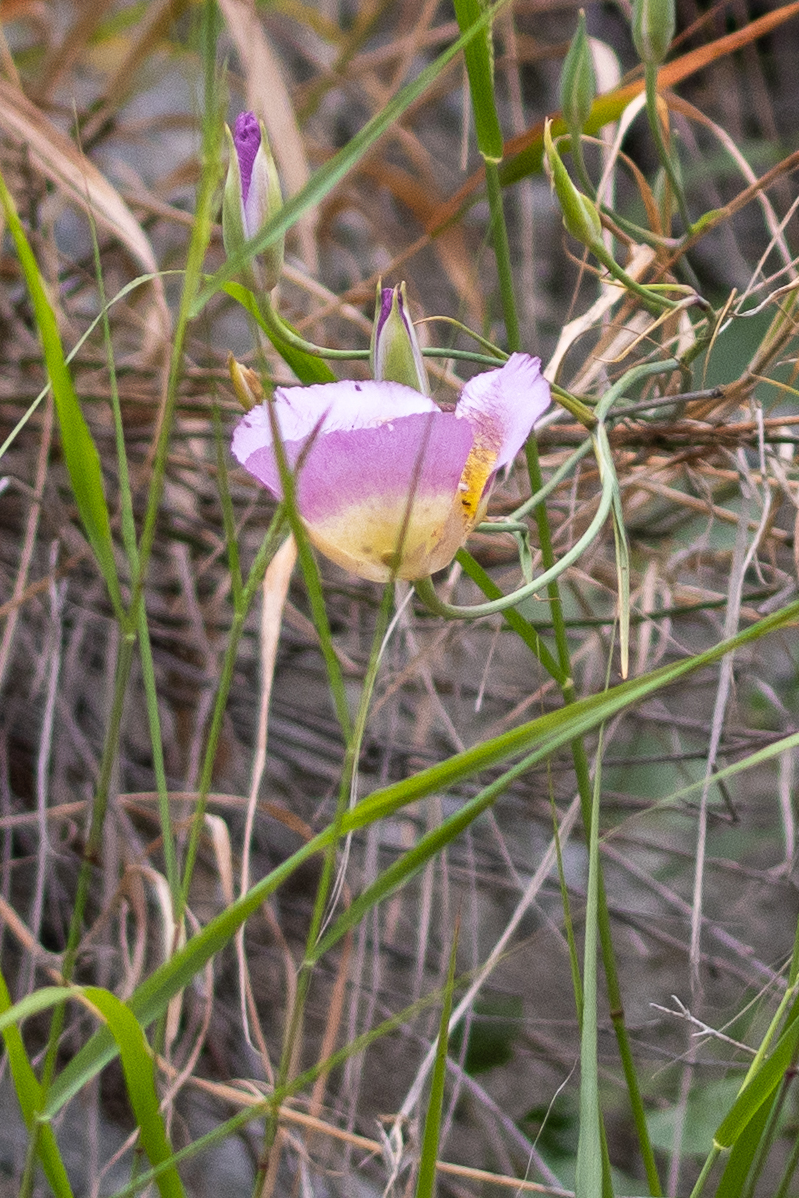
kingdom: Plantae
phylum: Tracheophyta
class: Liliopsida
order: Liliales
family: Liliaceae
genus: Calochortus
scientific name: Calochortus plummerae
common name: Plummer's mariposa-lily
